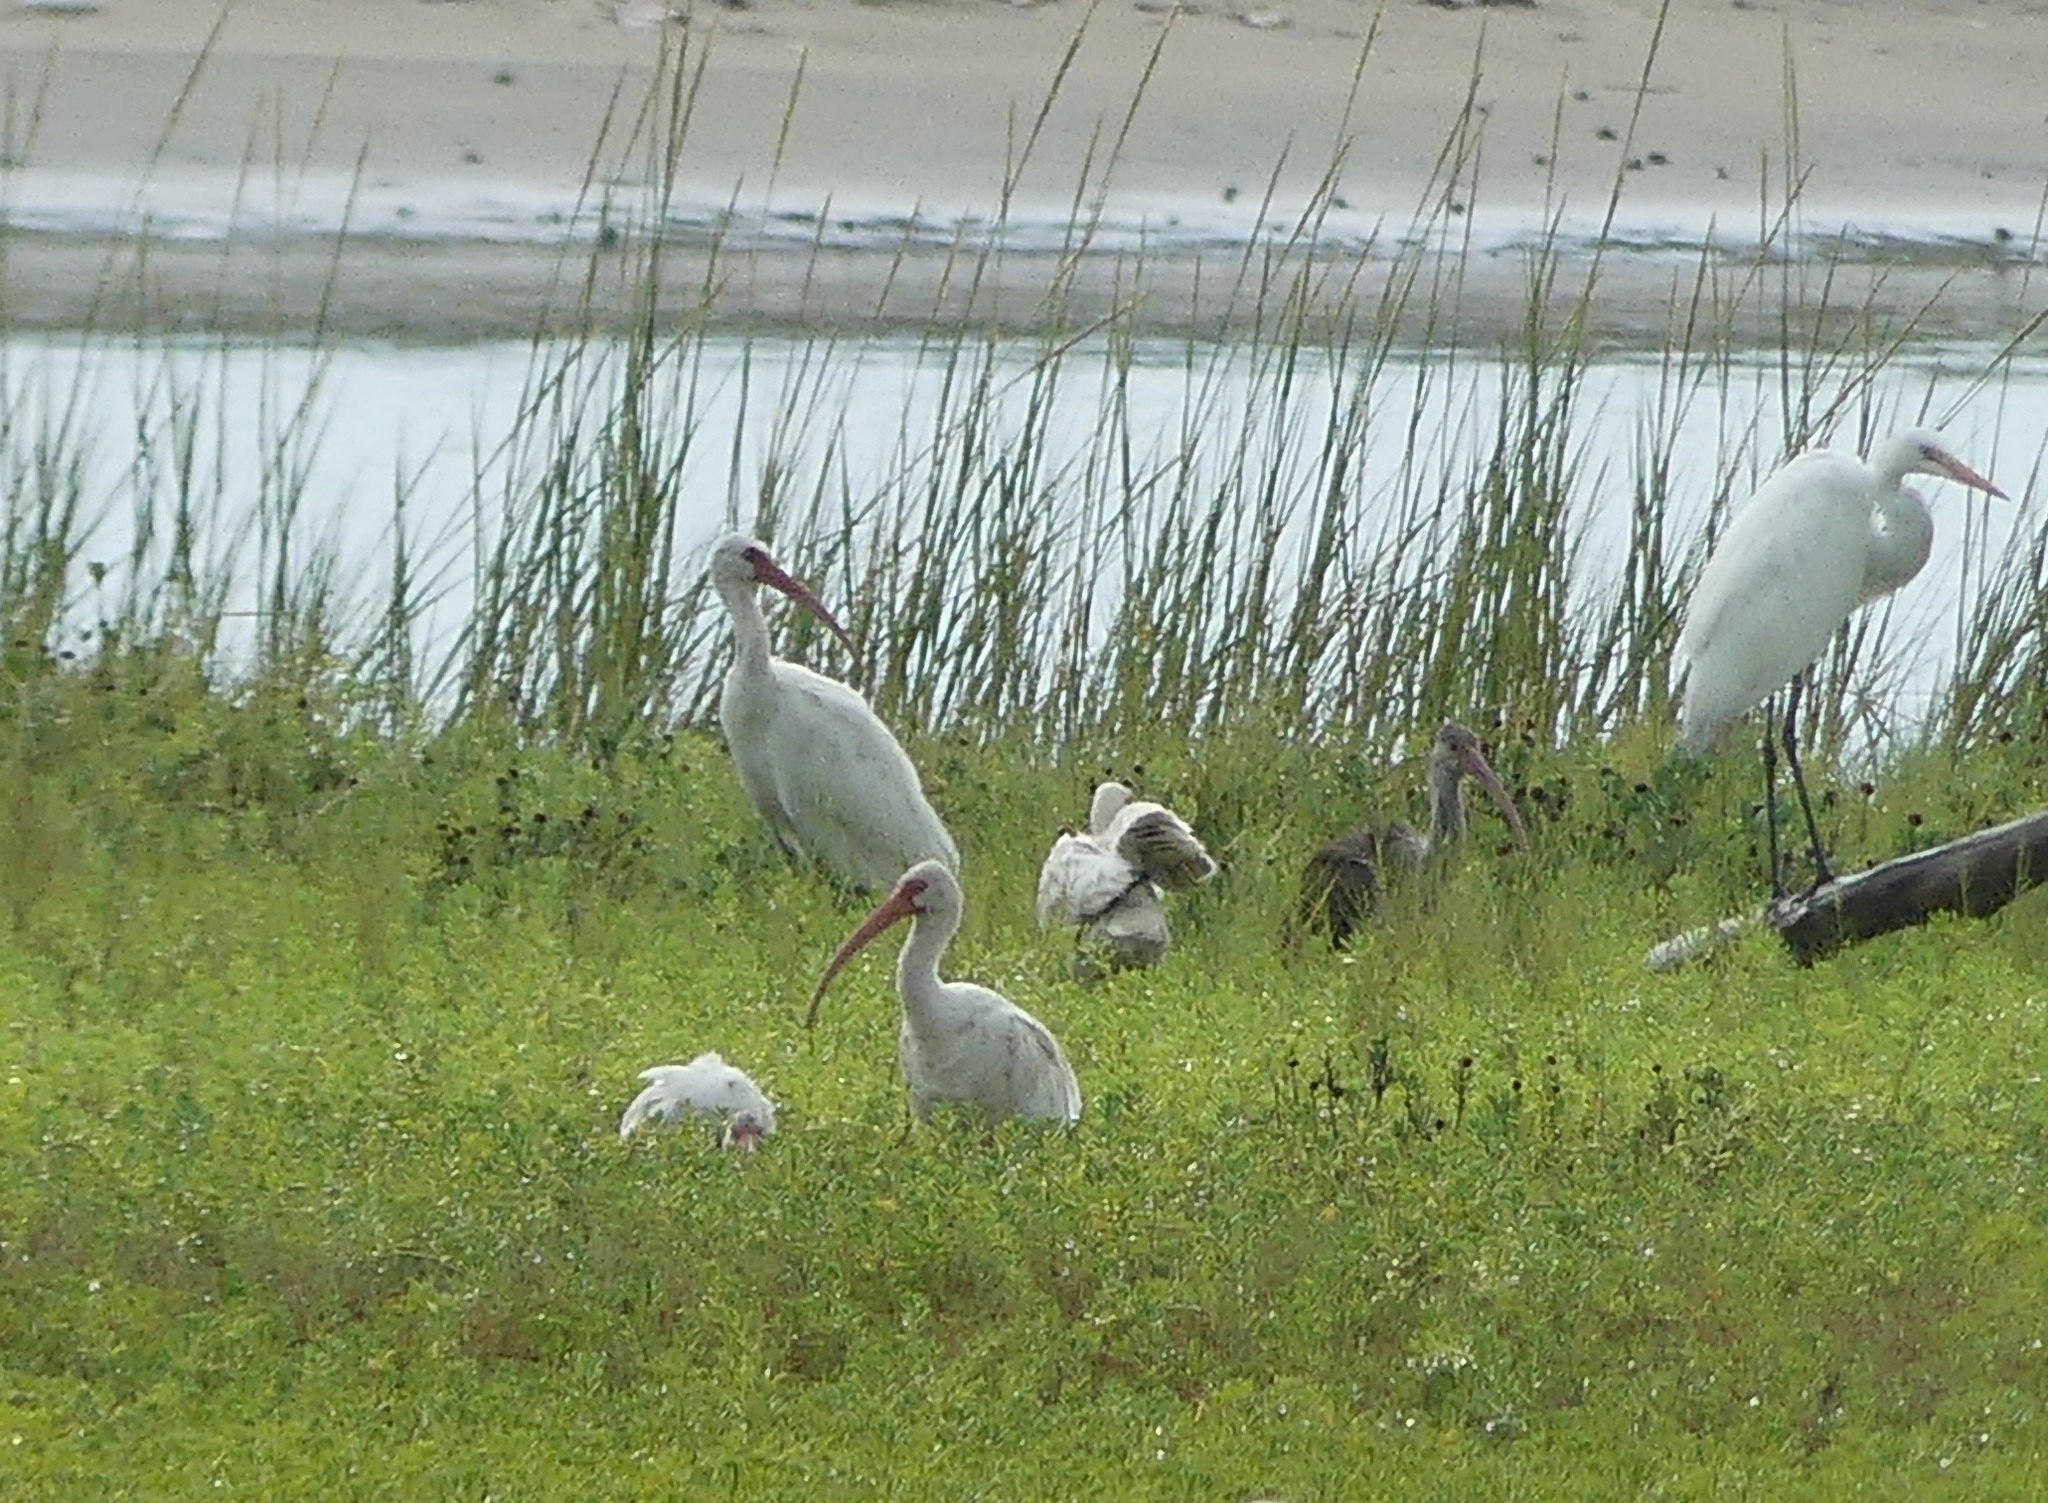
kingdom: Animalia
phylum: Chordata
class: Aves
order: Pelecaniformes
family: Threskiornithidae
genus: Eudocimus
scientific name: Eudocimus albus
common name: White ibis
